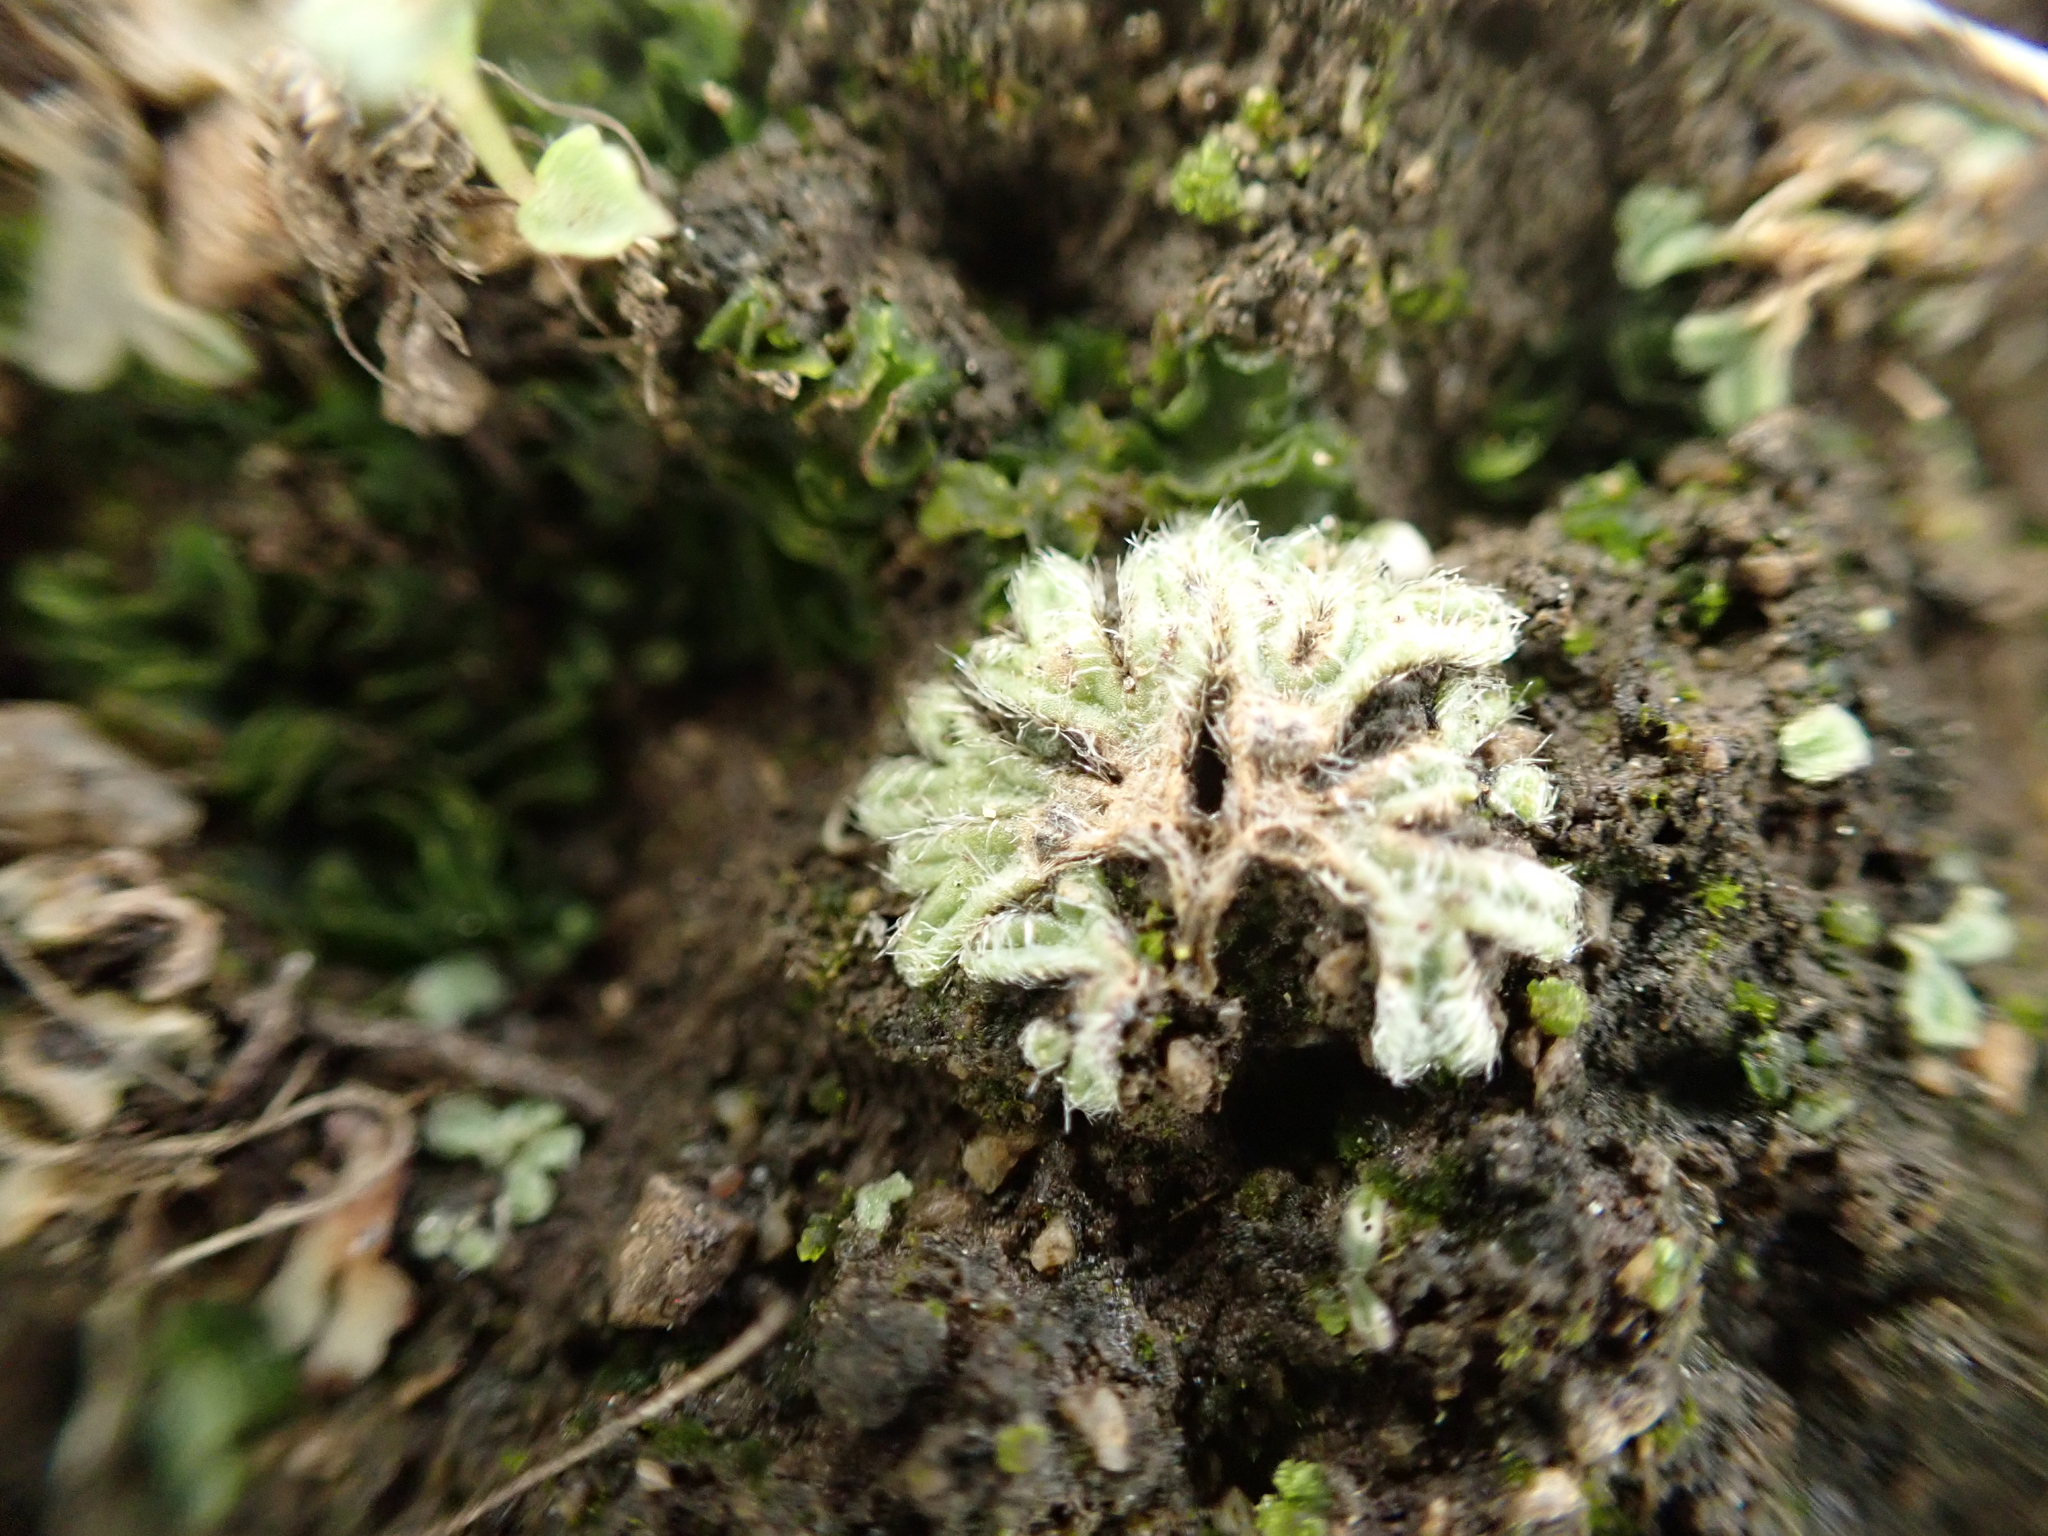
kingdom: Plantae
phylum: Marchantiophyta
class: Marchantiopsida
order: Marchantiales
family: Ricciaceae
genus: Riccia
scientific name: Riccia trichocarpa
